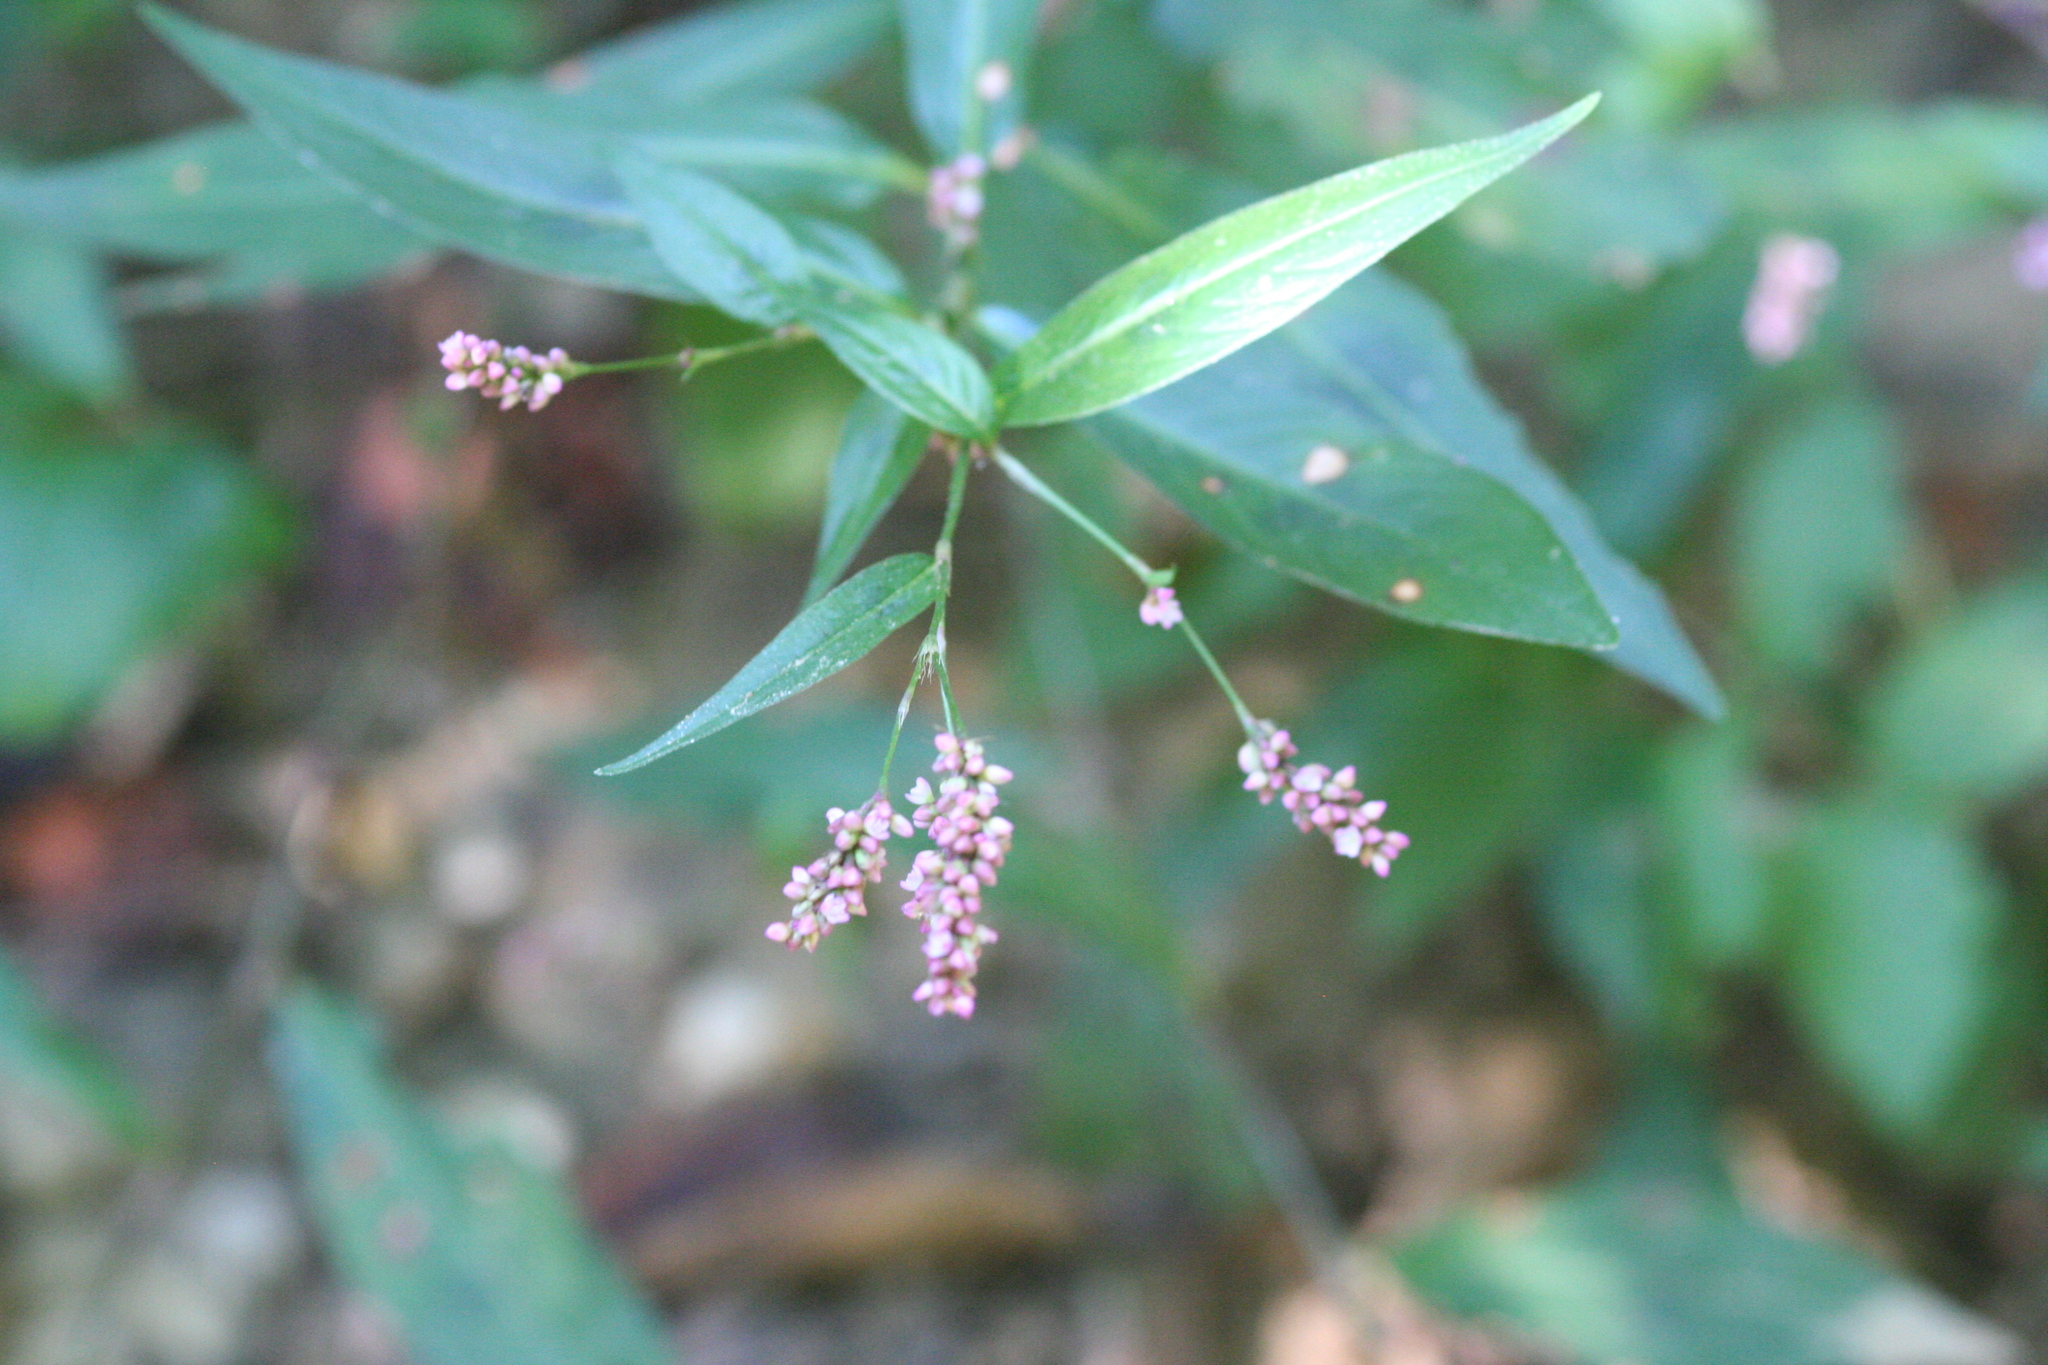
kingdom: Plantae
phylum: Tracheophyta
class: Magnoliopsida
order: Caryophyllales
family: Polygonaceae
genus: Persicaria
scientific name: Persicaria longiseta
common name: Bristly lady's-thumb
